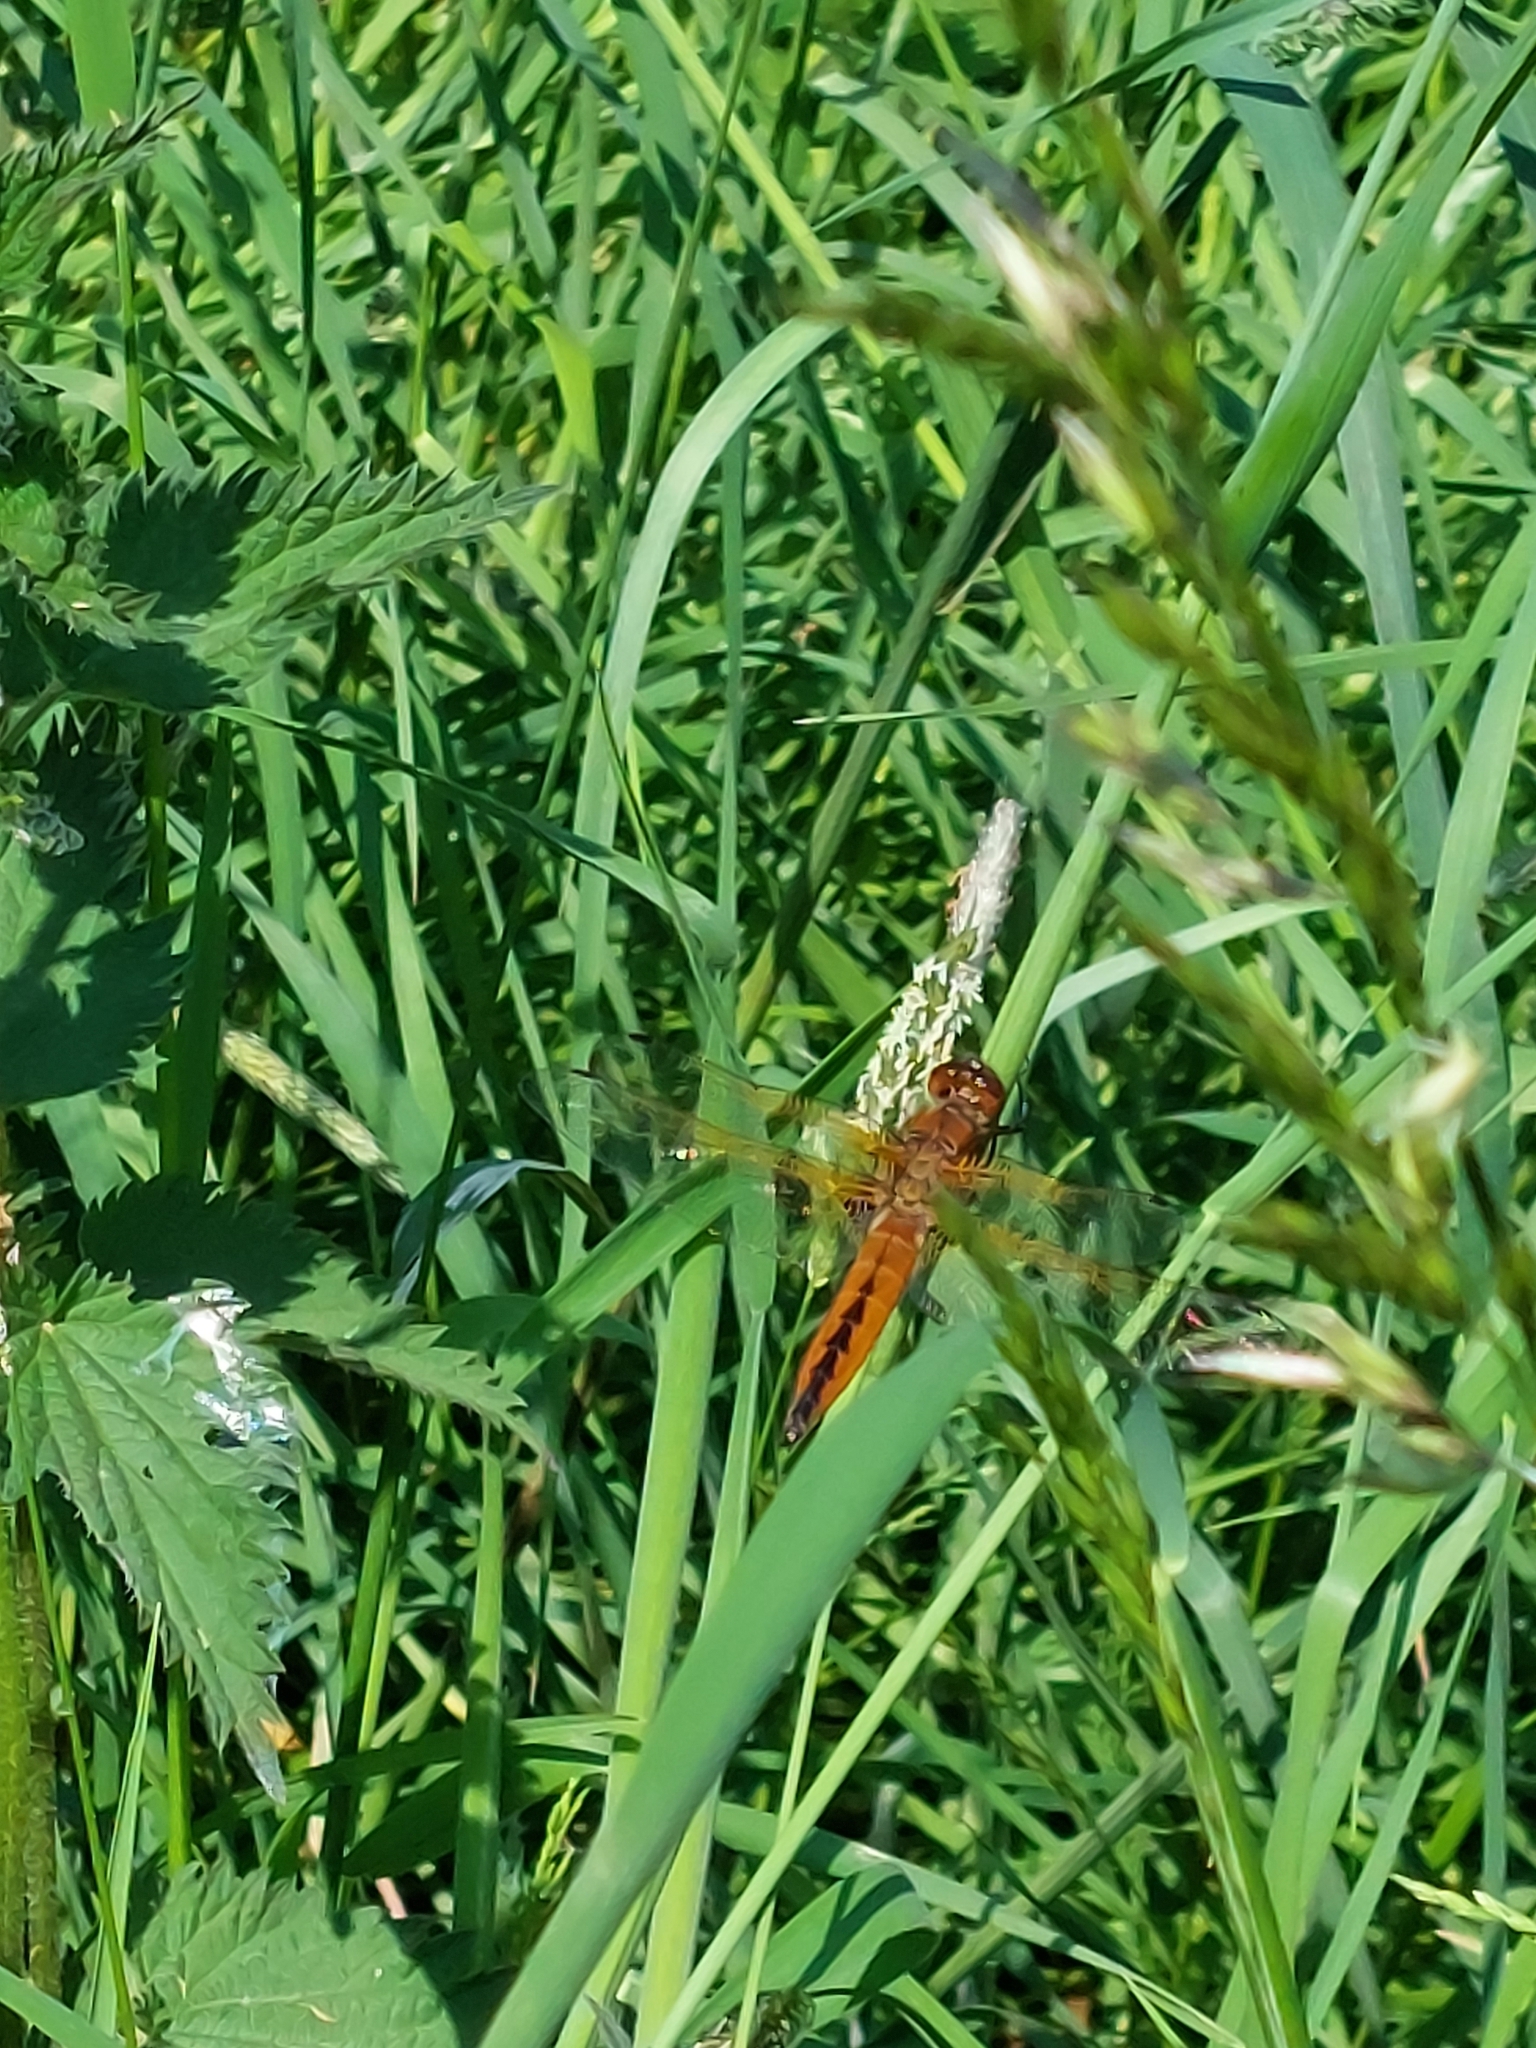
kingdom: Animalia
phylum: Arthropoda
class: Insecta
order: Odonata
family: Libellulidae
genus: Libellula
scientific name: Libellula fulva
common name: Blue chaser
